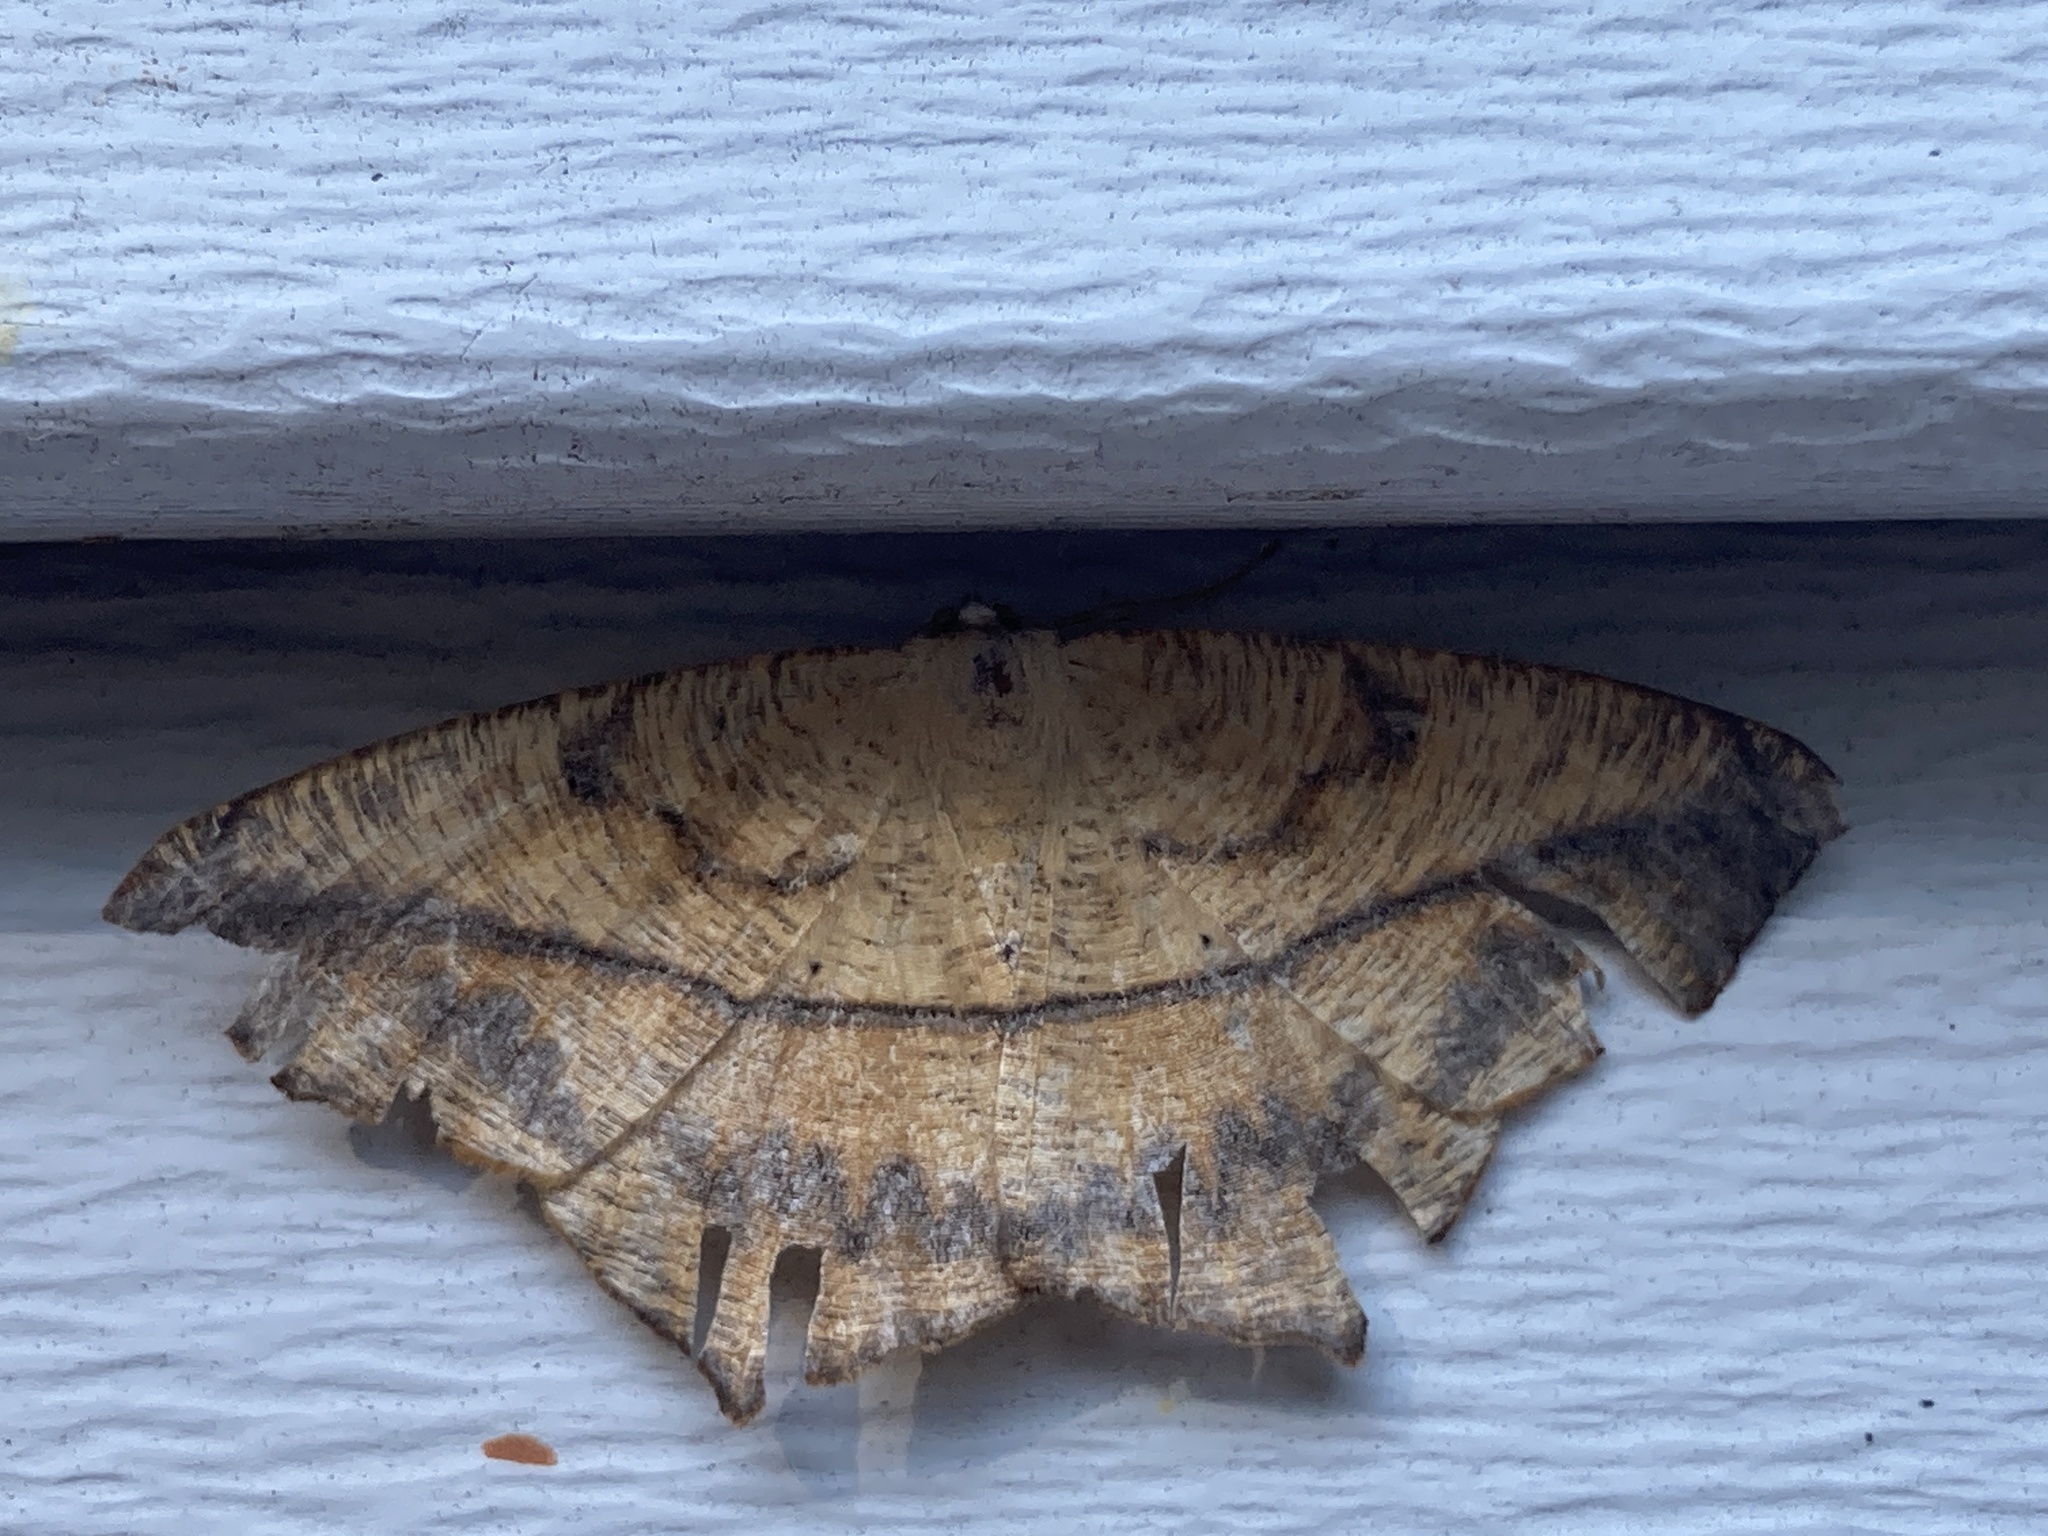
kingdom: Animalia
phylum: Arthropoda
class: Insecta
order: Lepidoptera
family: Geometridae
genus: Prochoerodes
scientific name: Prochoerodes lineola
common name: Large maple spanworm
